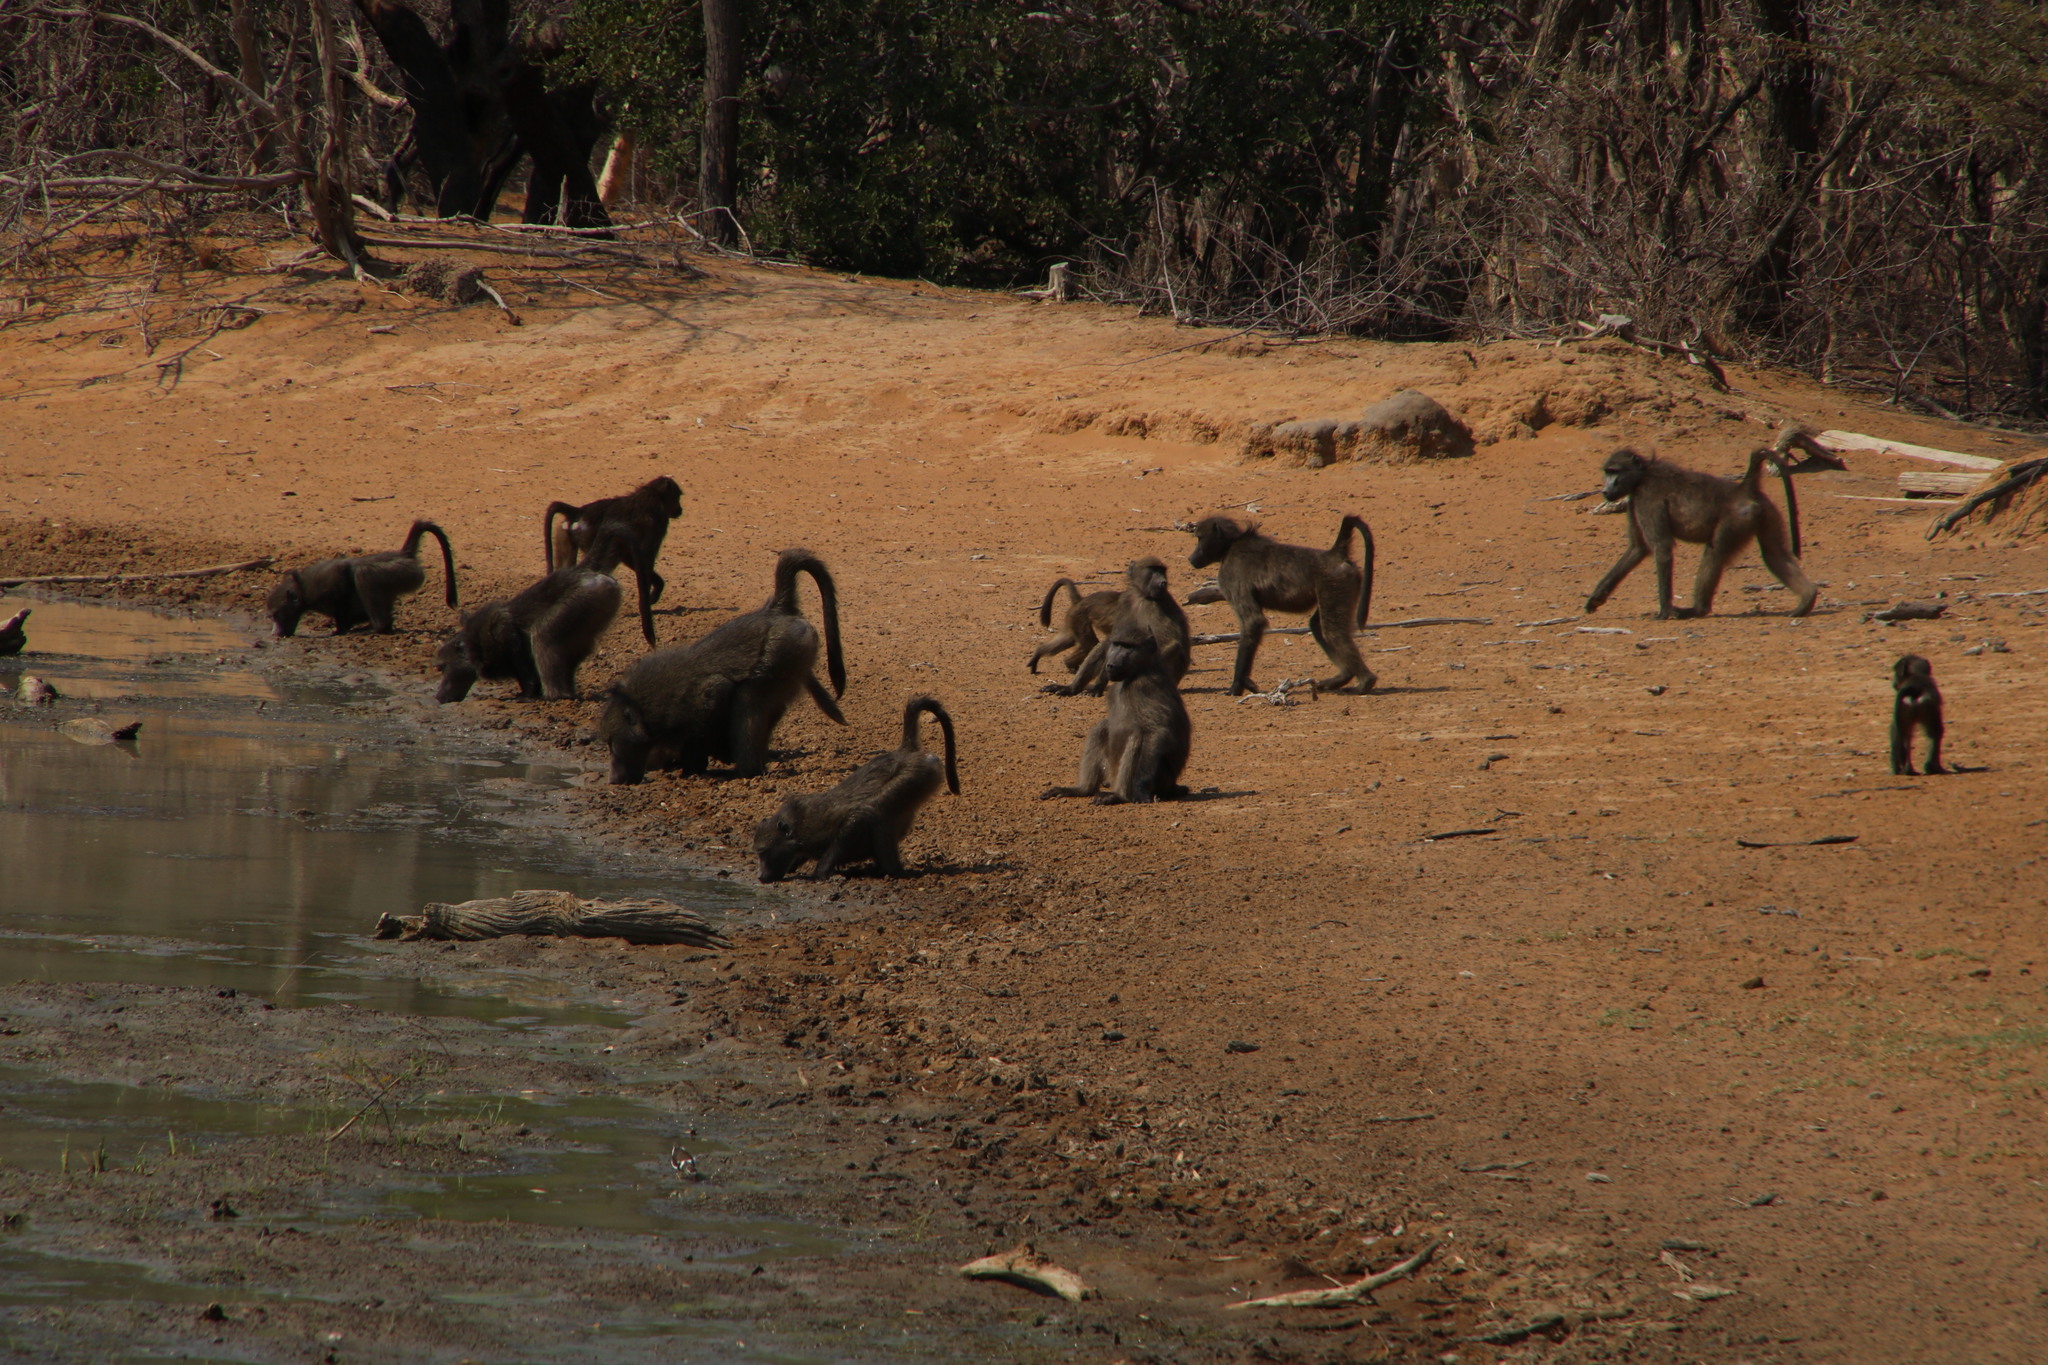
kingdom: Animalia
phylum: Chordata
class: Mammalia
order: Primates
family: Cercopithecidae
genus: Papio
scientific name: Papio ursinus
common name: Chacma baboon
